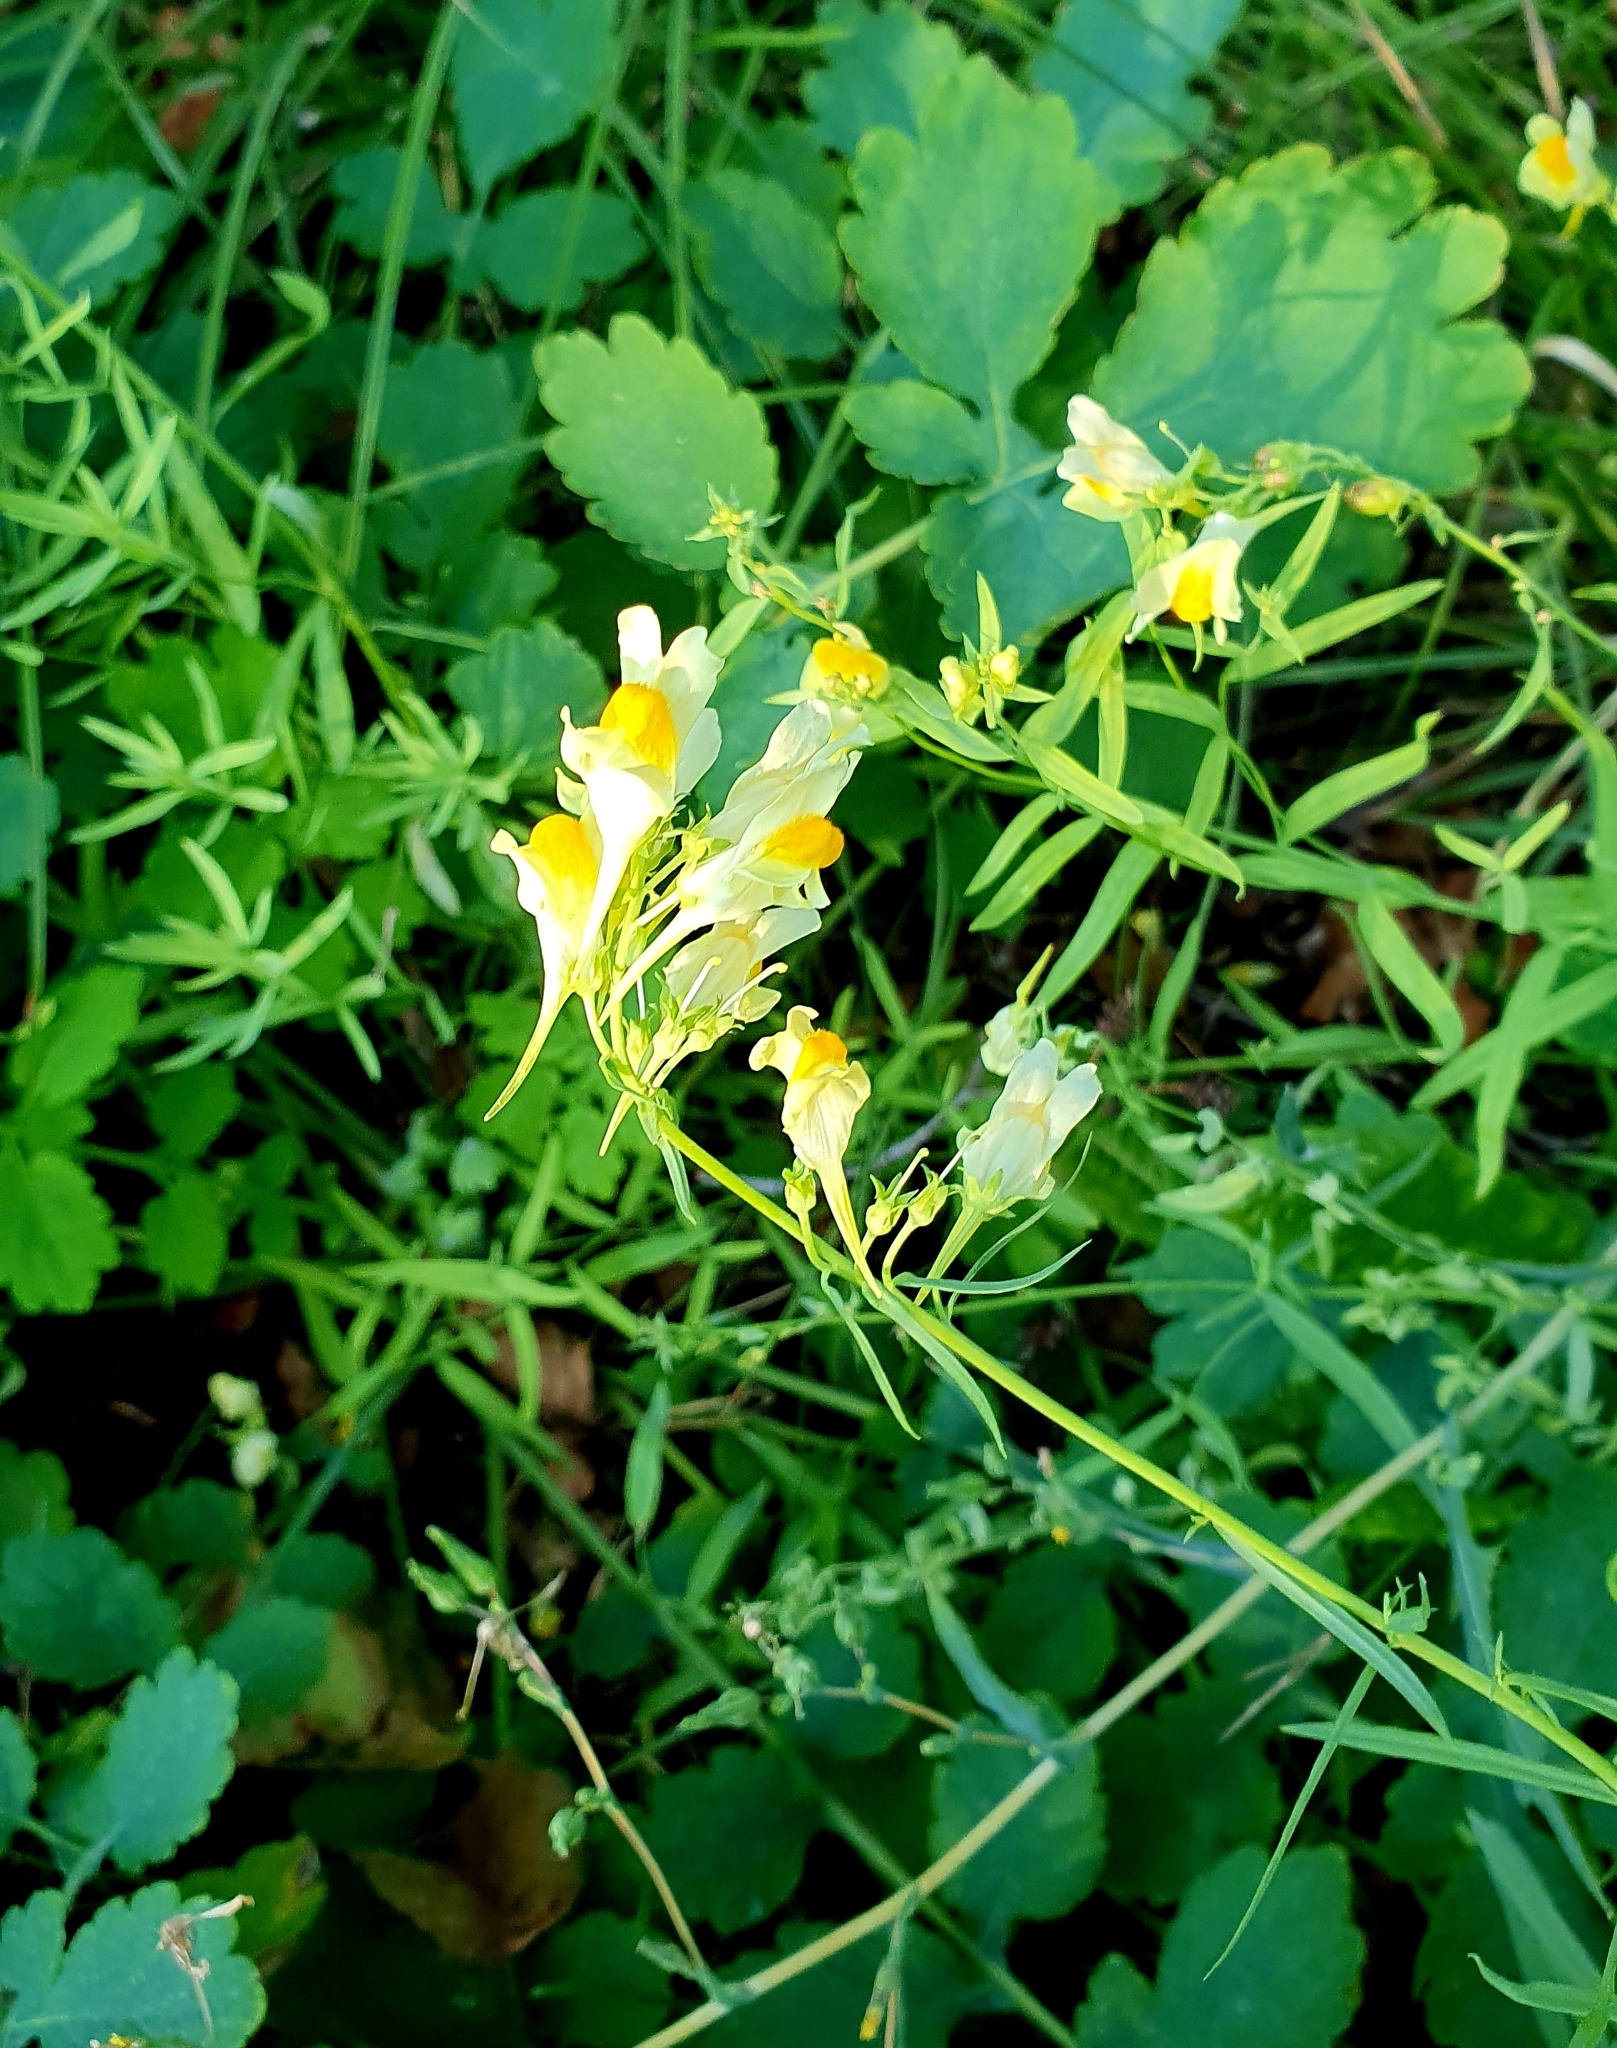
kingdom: Plantae
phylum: Tracheophyta
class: Magnoliopsida
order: Lamiales
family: Plantaginaceae
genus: Linaria
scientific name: Linaria vulgaris
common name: Butter and eggs
